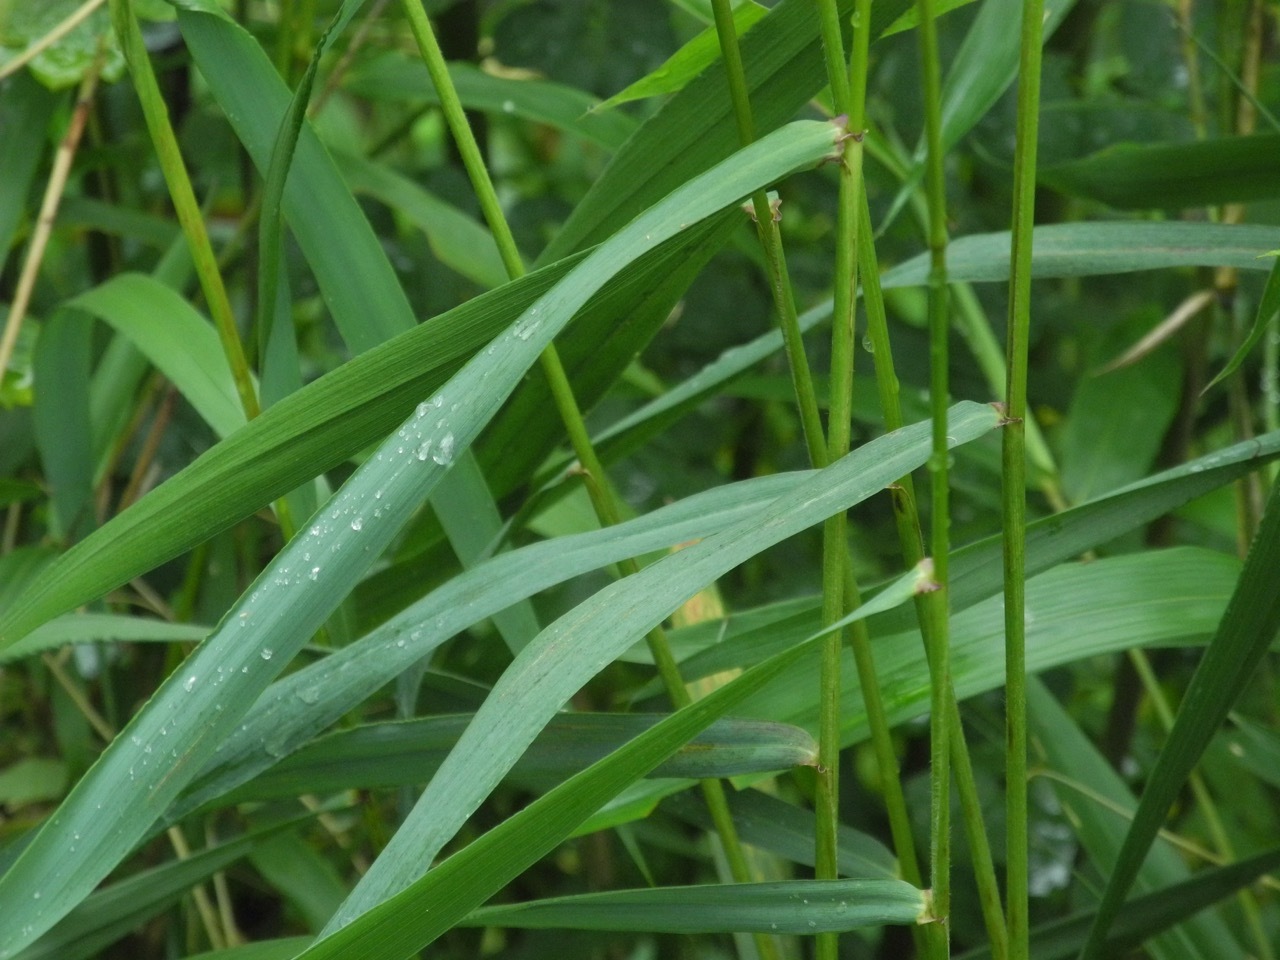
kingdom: Plantae
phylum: Tracheophyta
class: Liliopsida
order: Poales
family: Poaceae
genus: Elymus
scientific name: Elymus riparius
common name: Eastern riverbank wild rye
